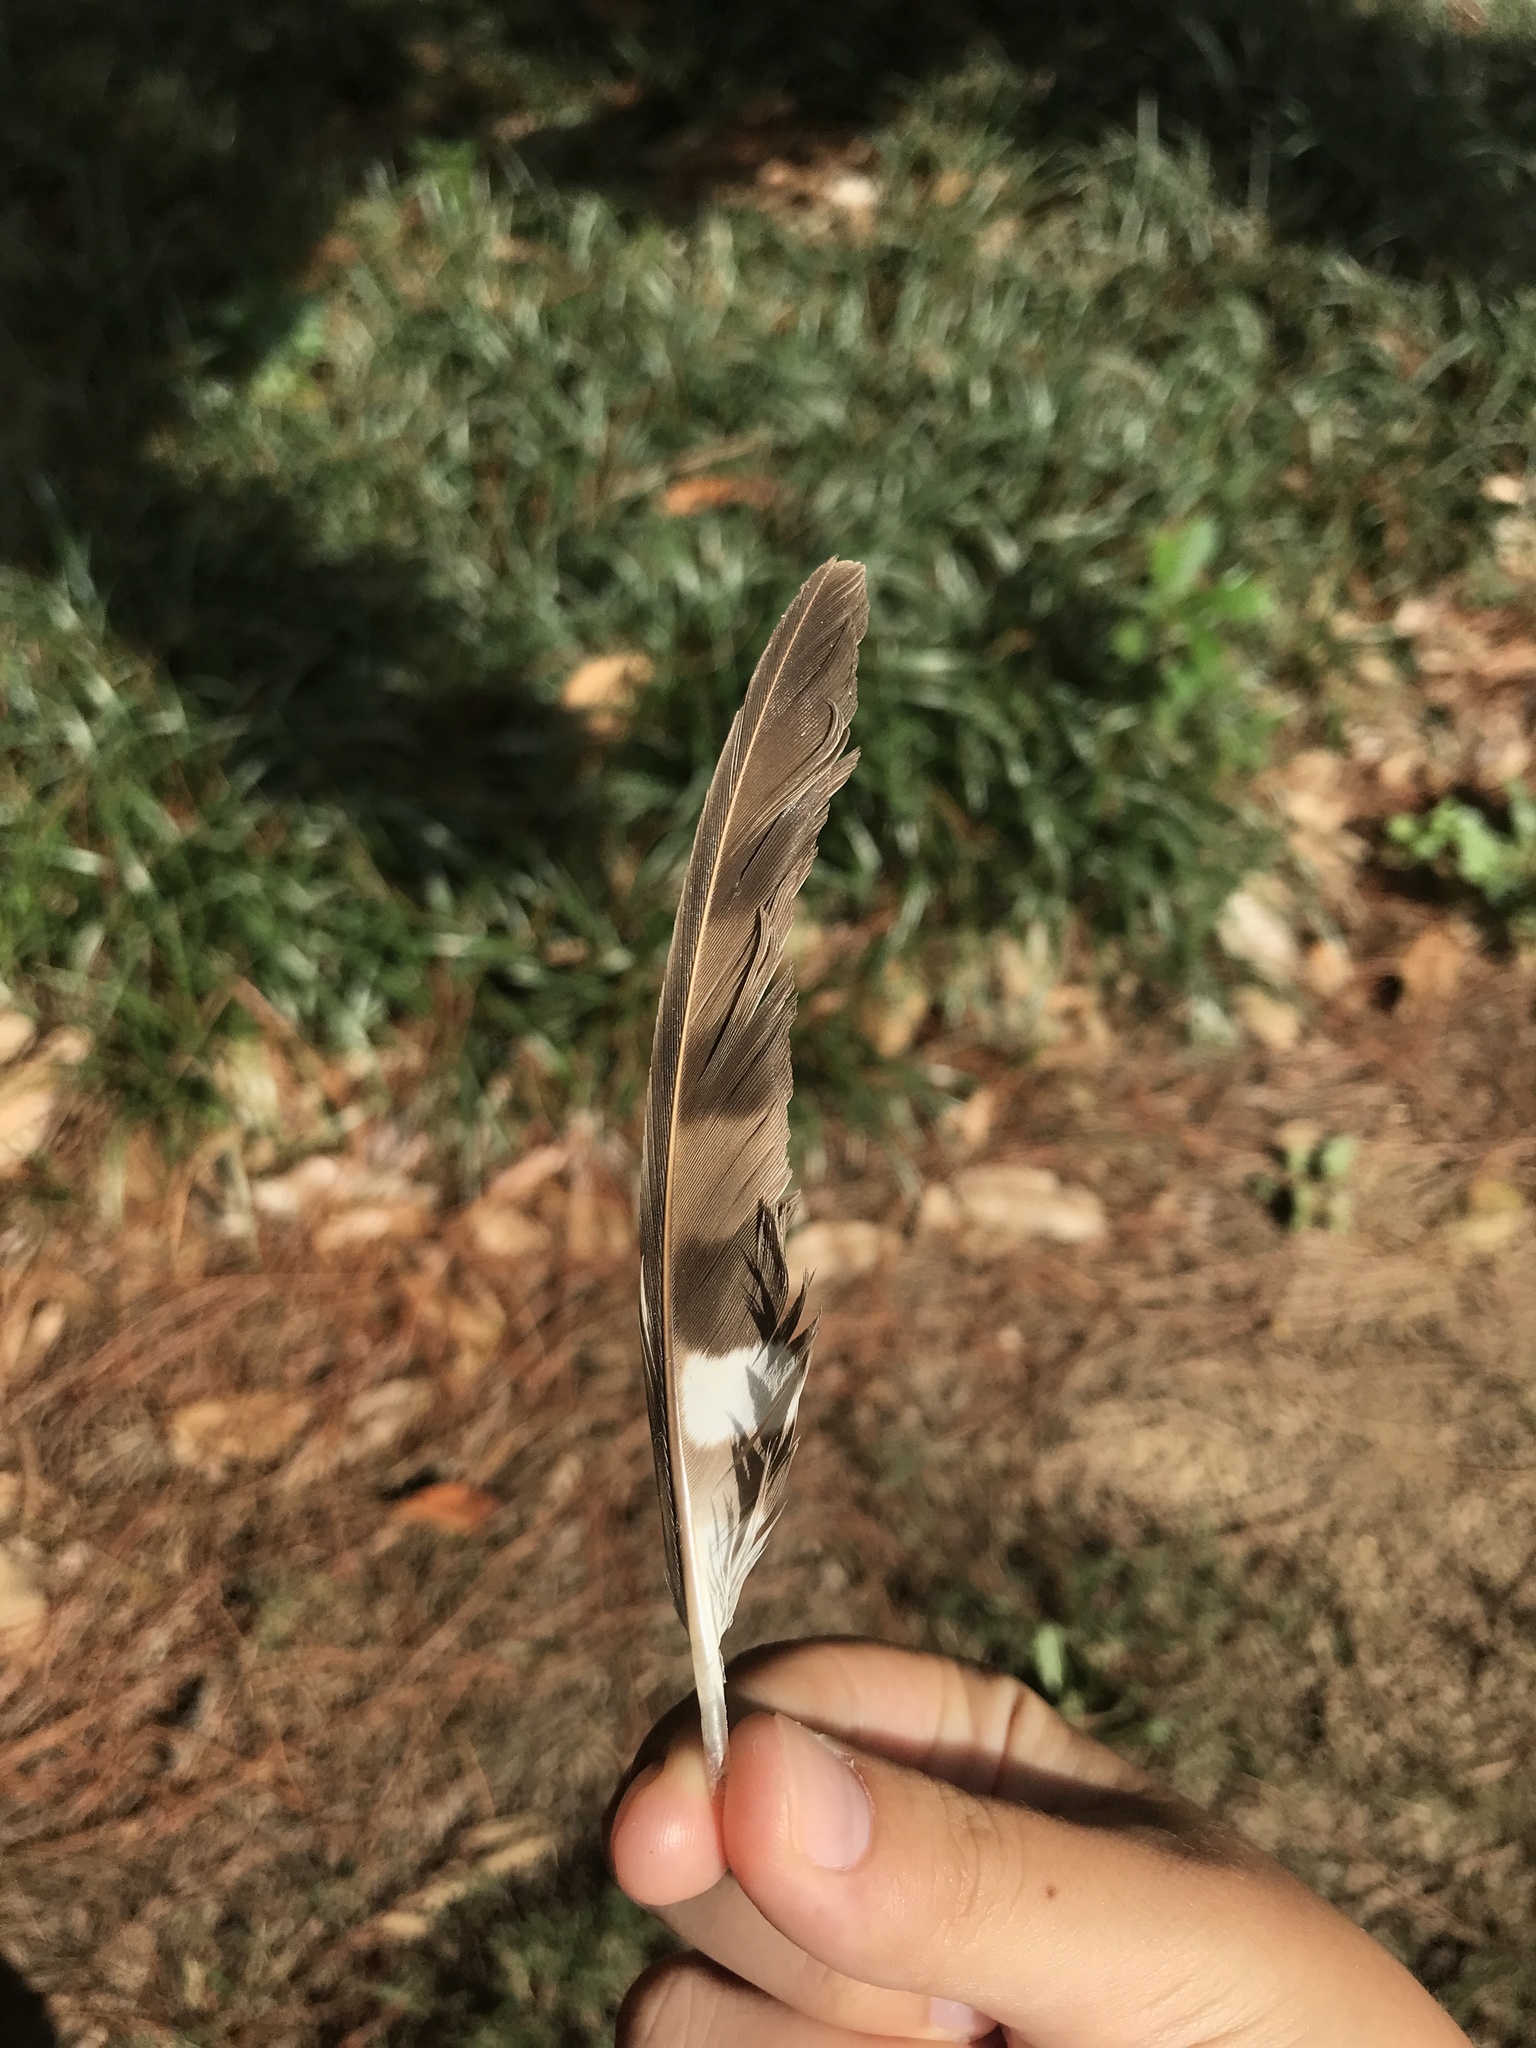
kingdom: Animalia
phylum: Chordata
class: Aves
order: Accipitriformes
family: Accipitridae
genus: Accipiter
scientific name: Accipiter cooperii
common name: Cooper's hawk
